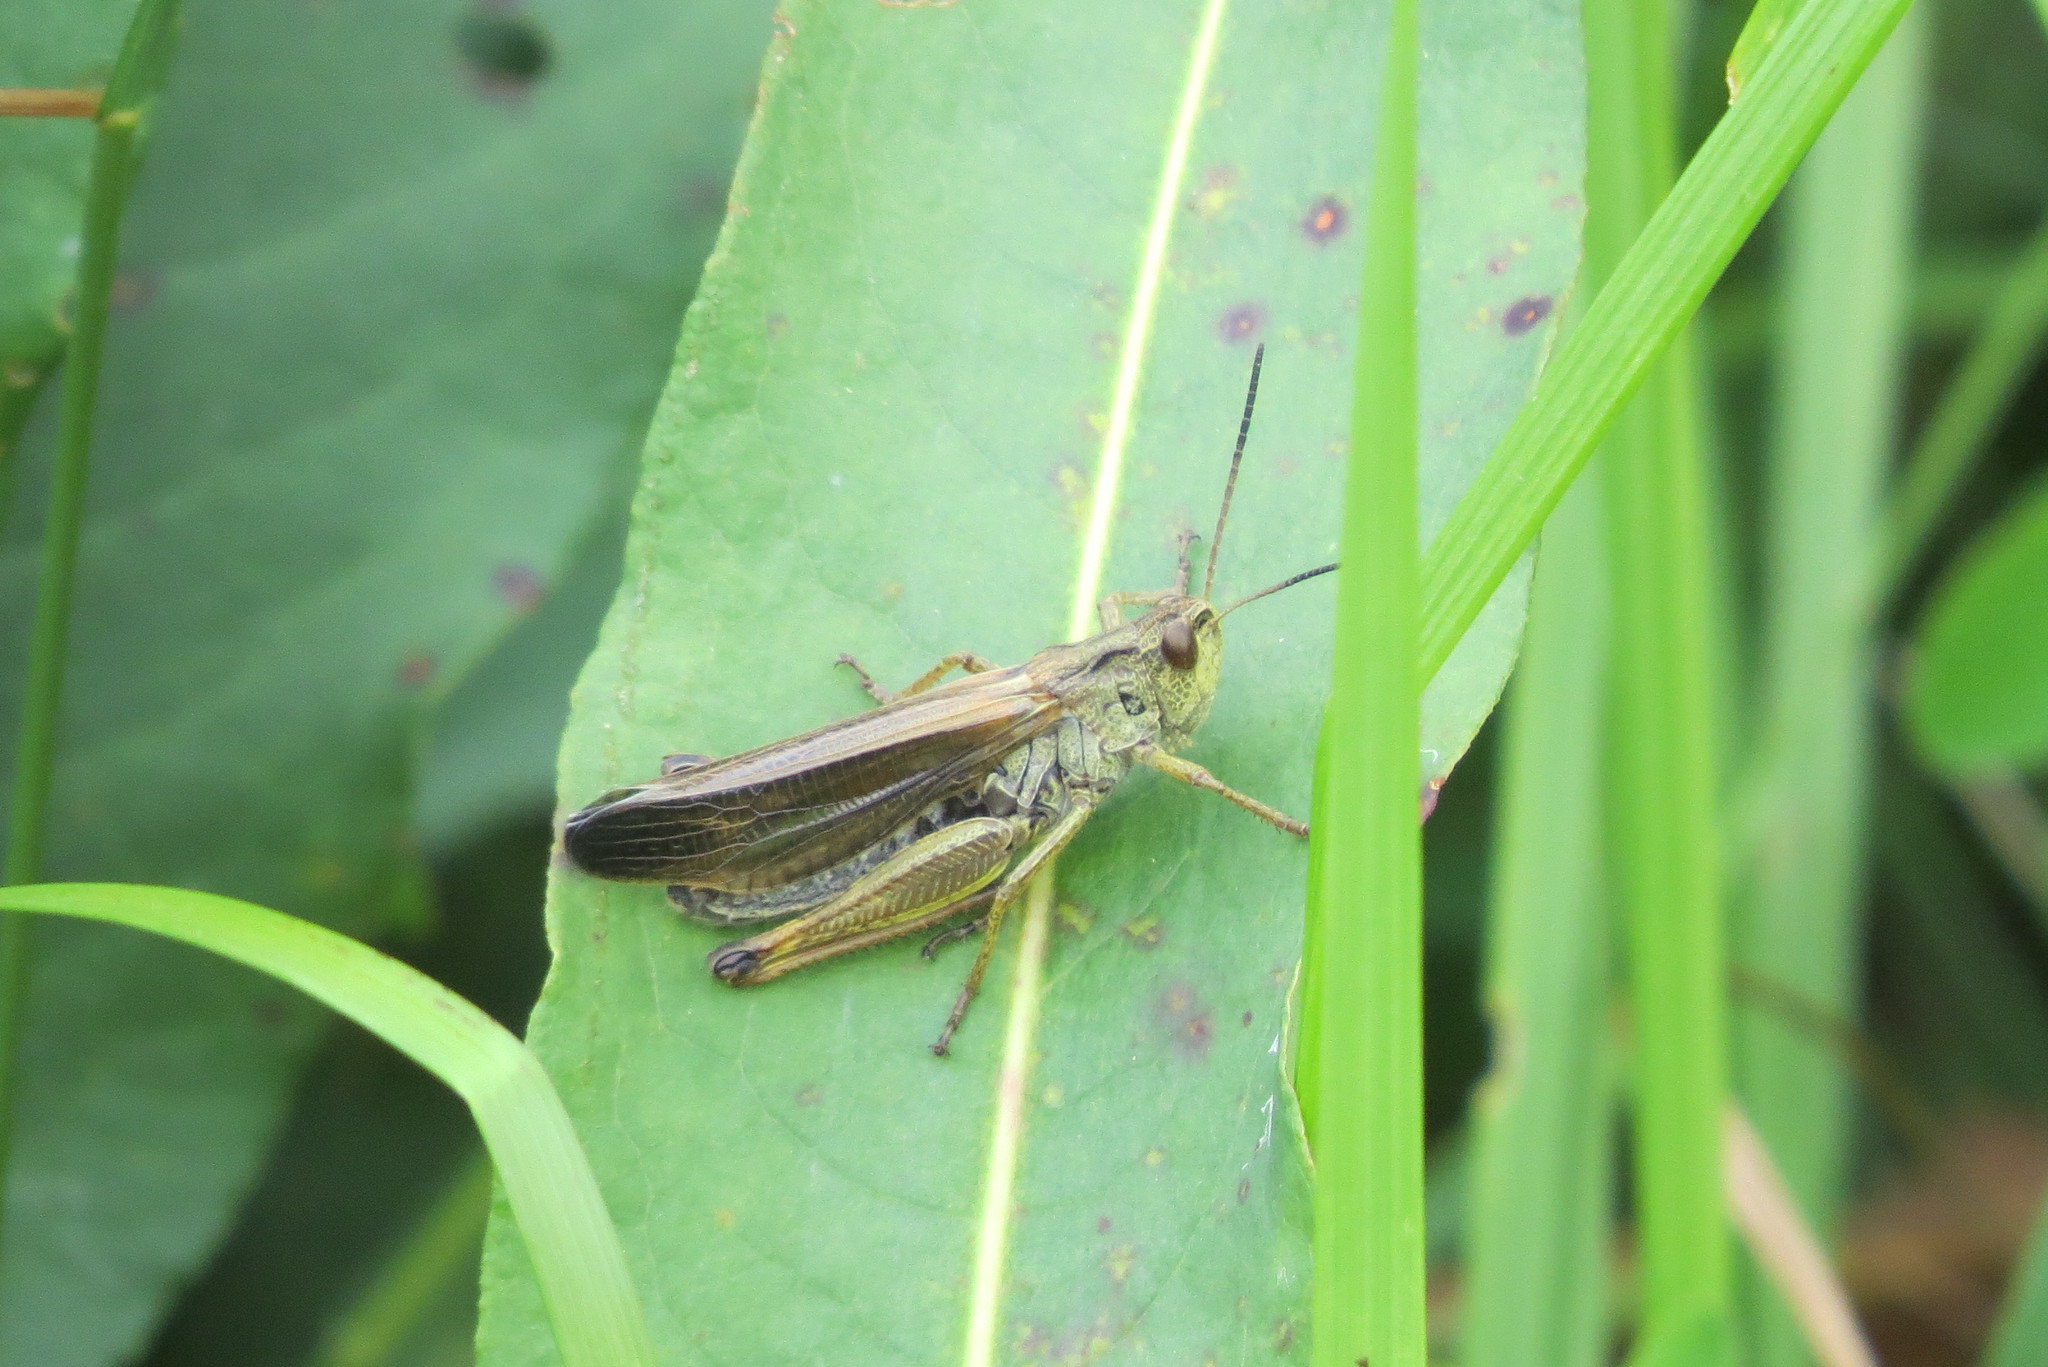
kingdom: Animalia
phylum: Arthropoda
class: Insecta
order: Orthoptera
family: Acrididae
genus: Stauroderus
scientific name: Stauroderus scalaris
